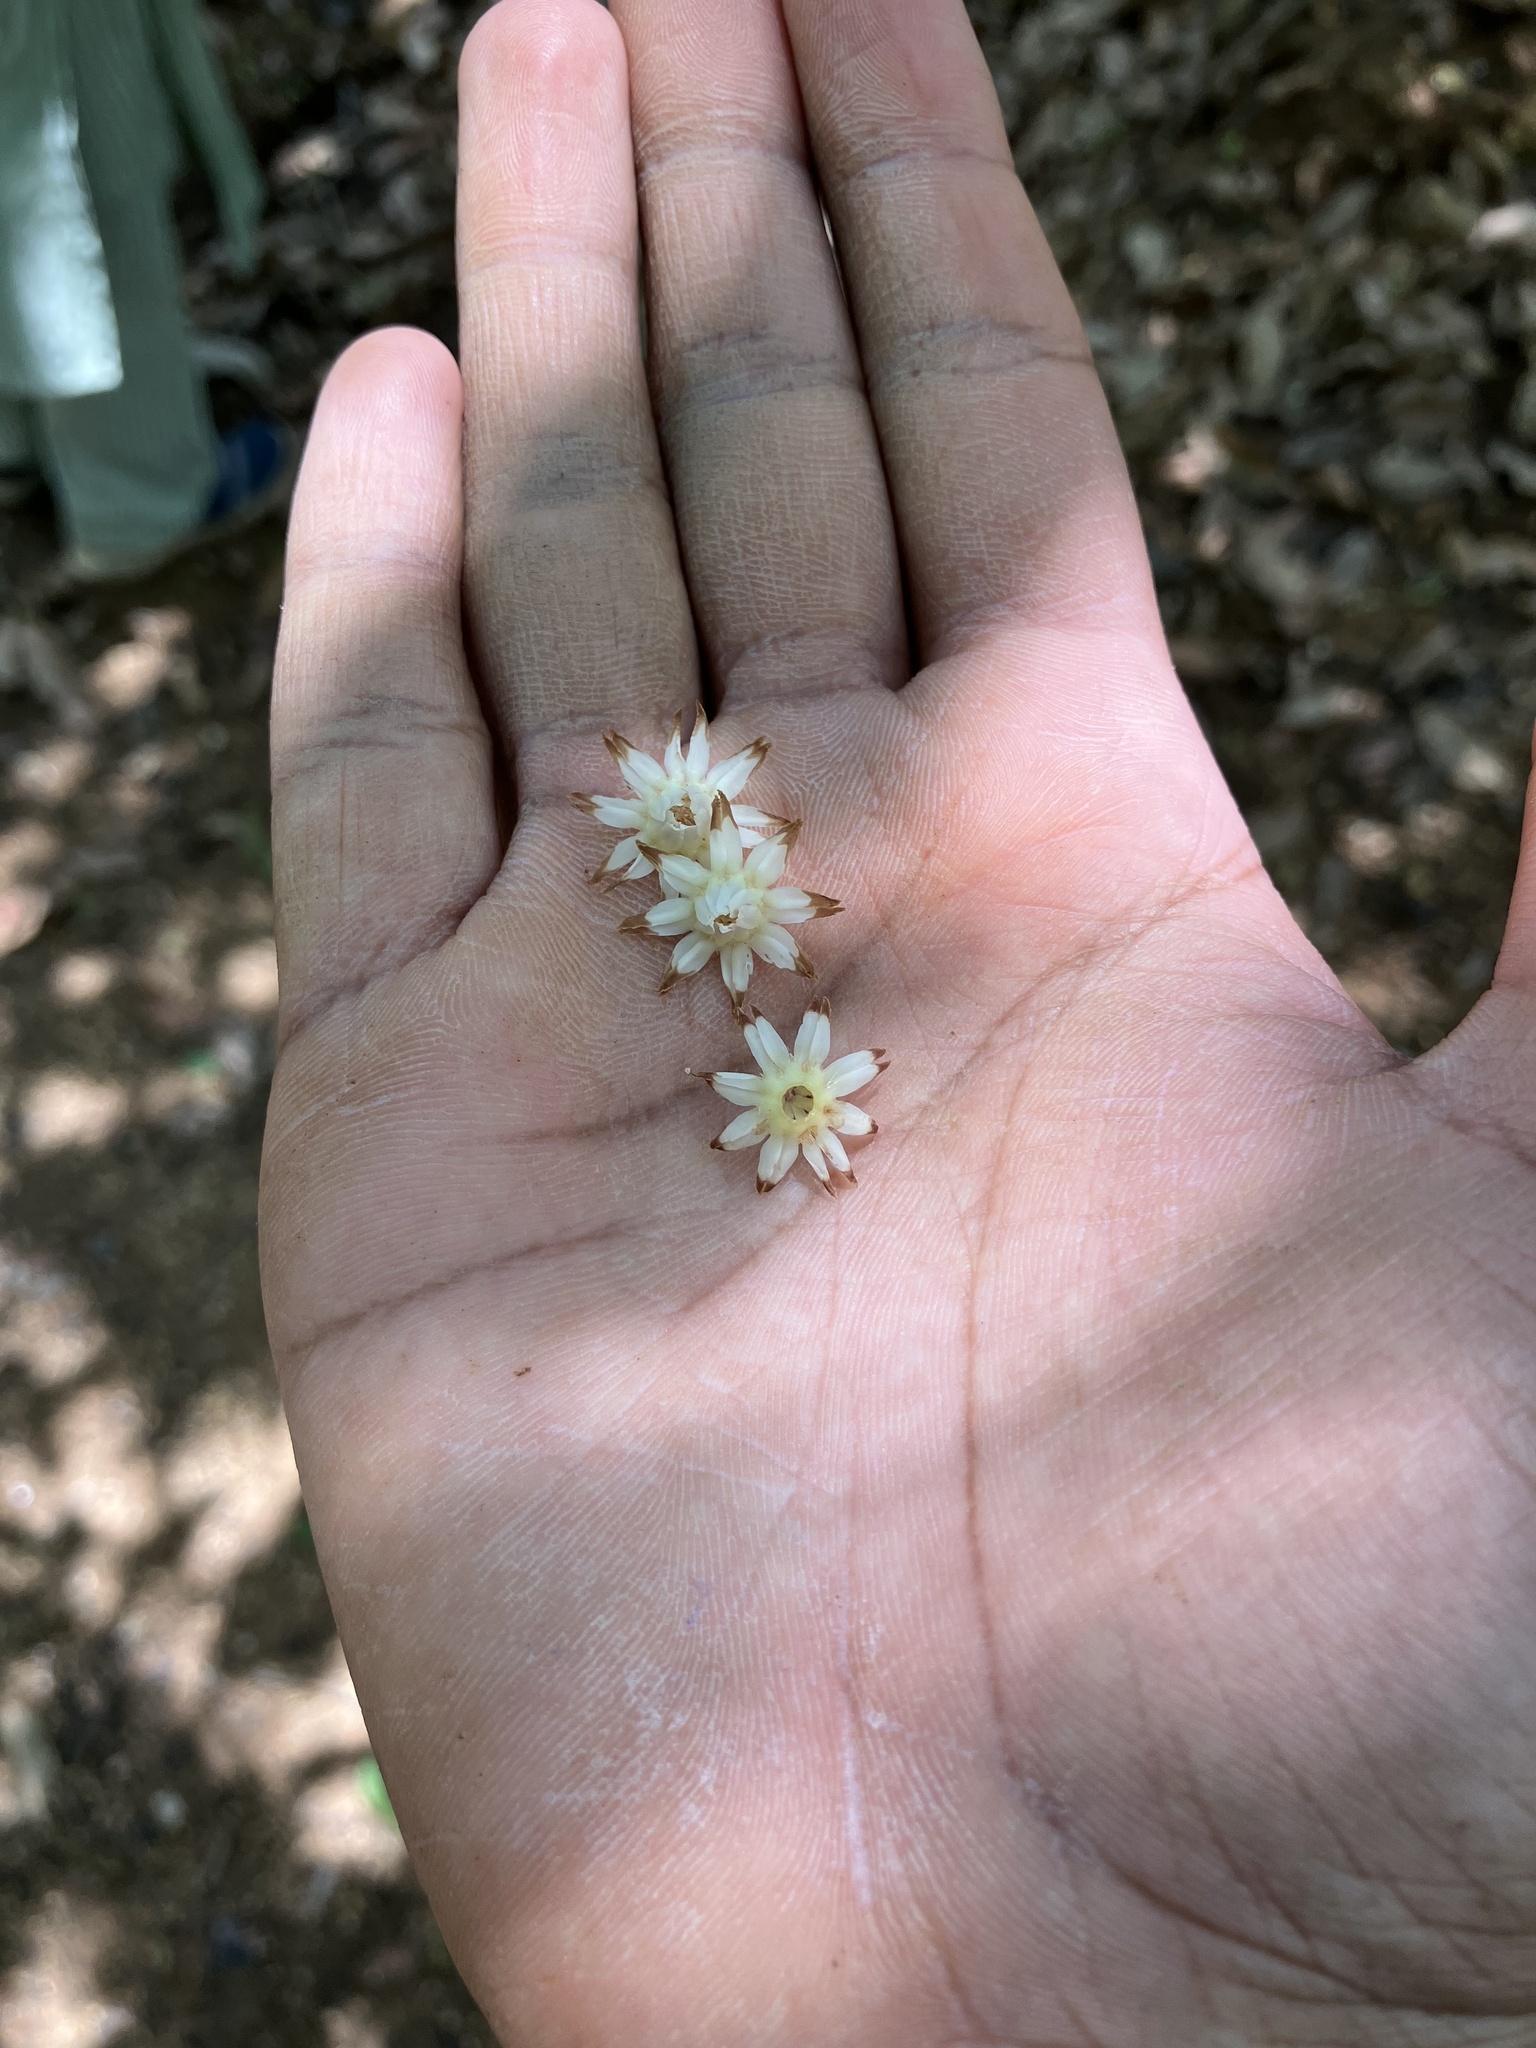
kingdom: Plantae
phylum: Tracheophyta
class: Magnoliopsida
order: Ericales
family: Sapotaceae
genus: Mimusops
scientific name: Mimusops elengi
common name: Spanish cherry
